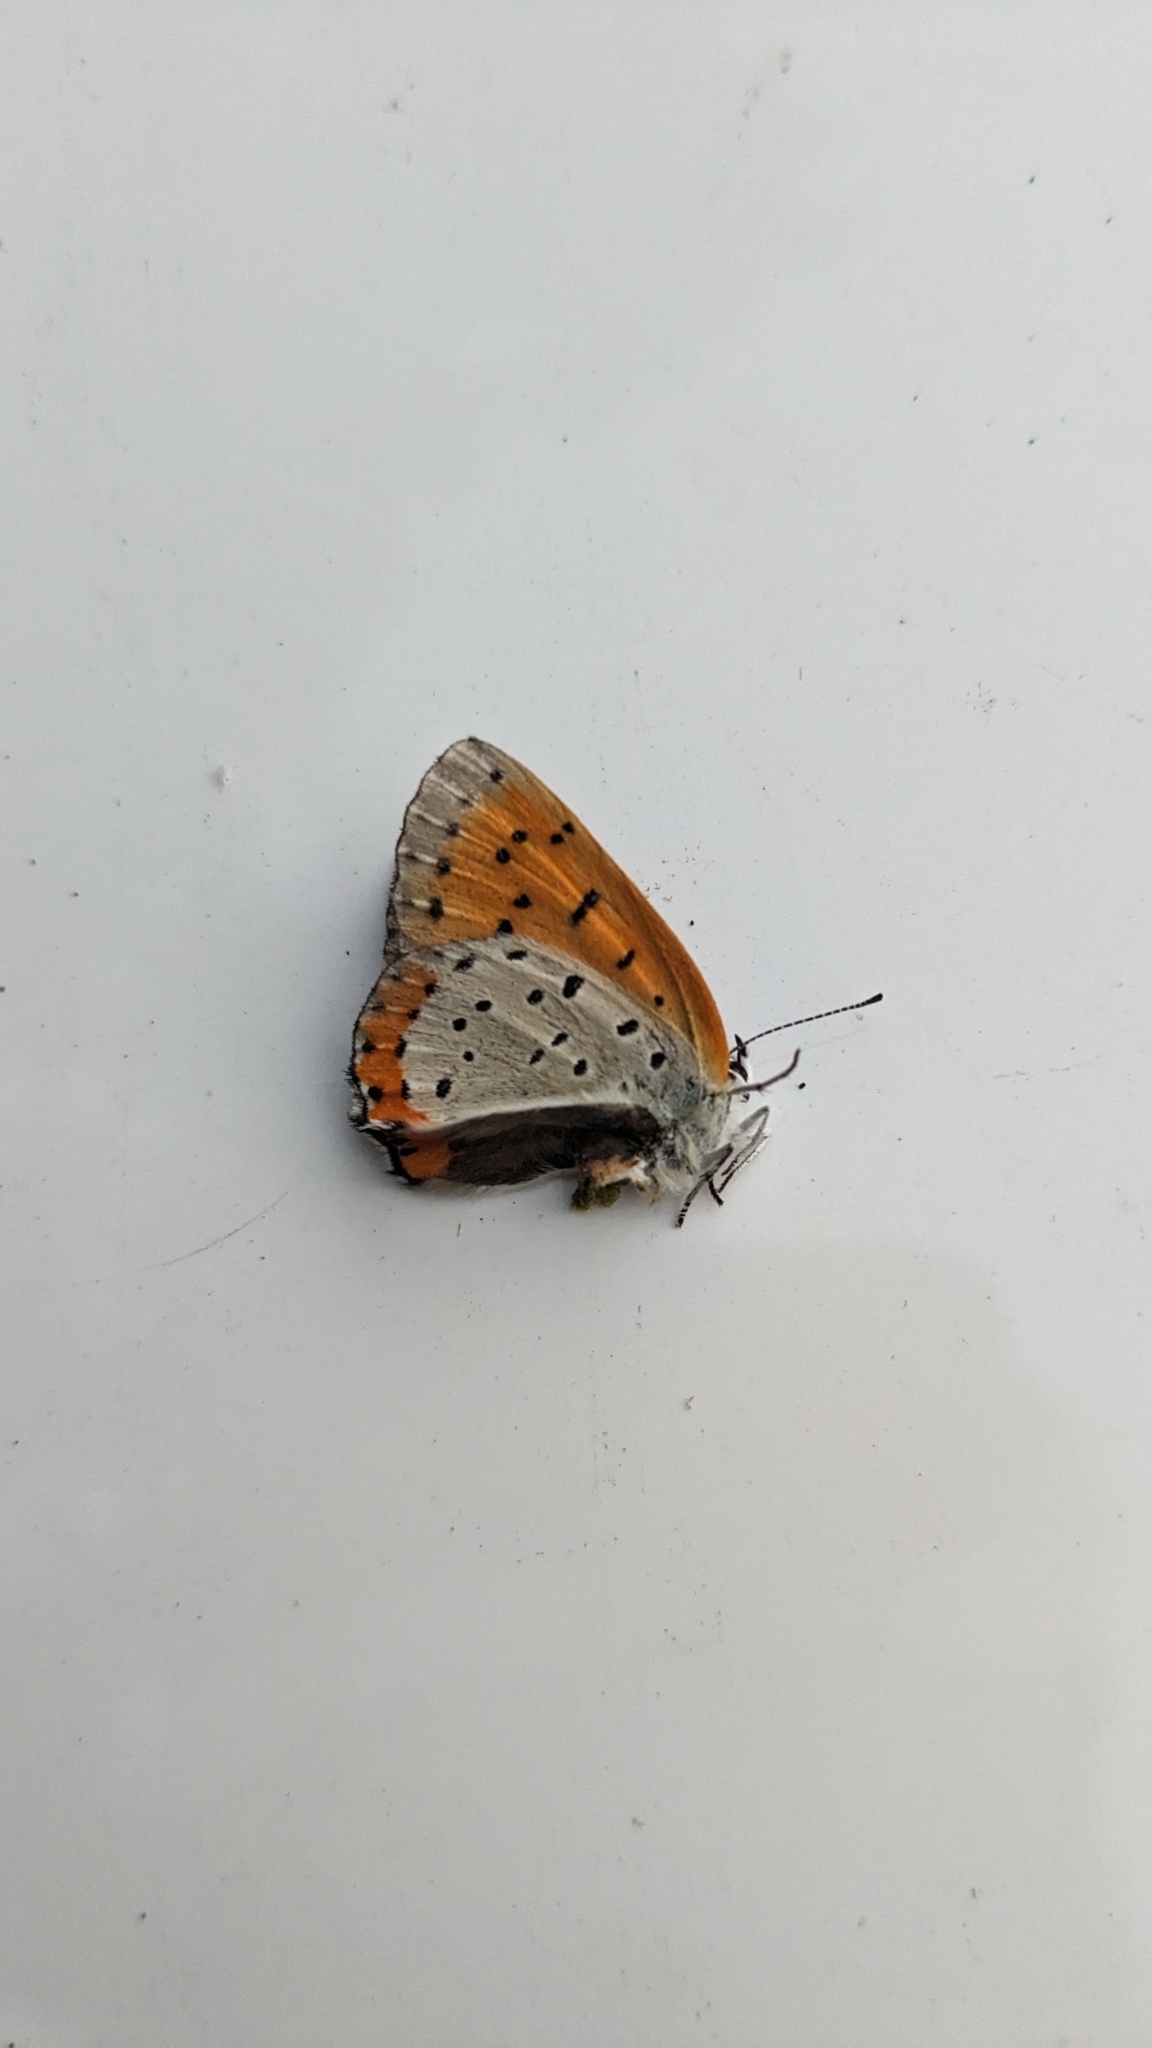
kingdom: Animalia
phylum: Arthropoda
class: Insecta
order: Lepidoptera
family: Lycaenidae
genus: Tharsalea
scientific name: Tharsalea hyllus
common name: Bronze copper
